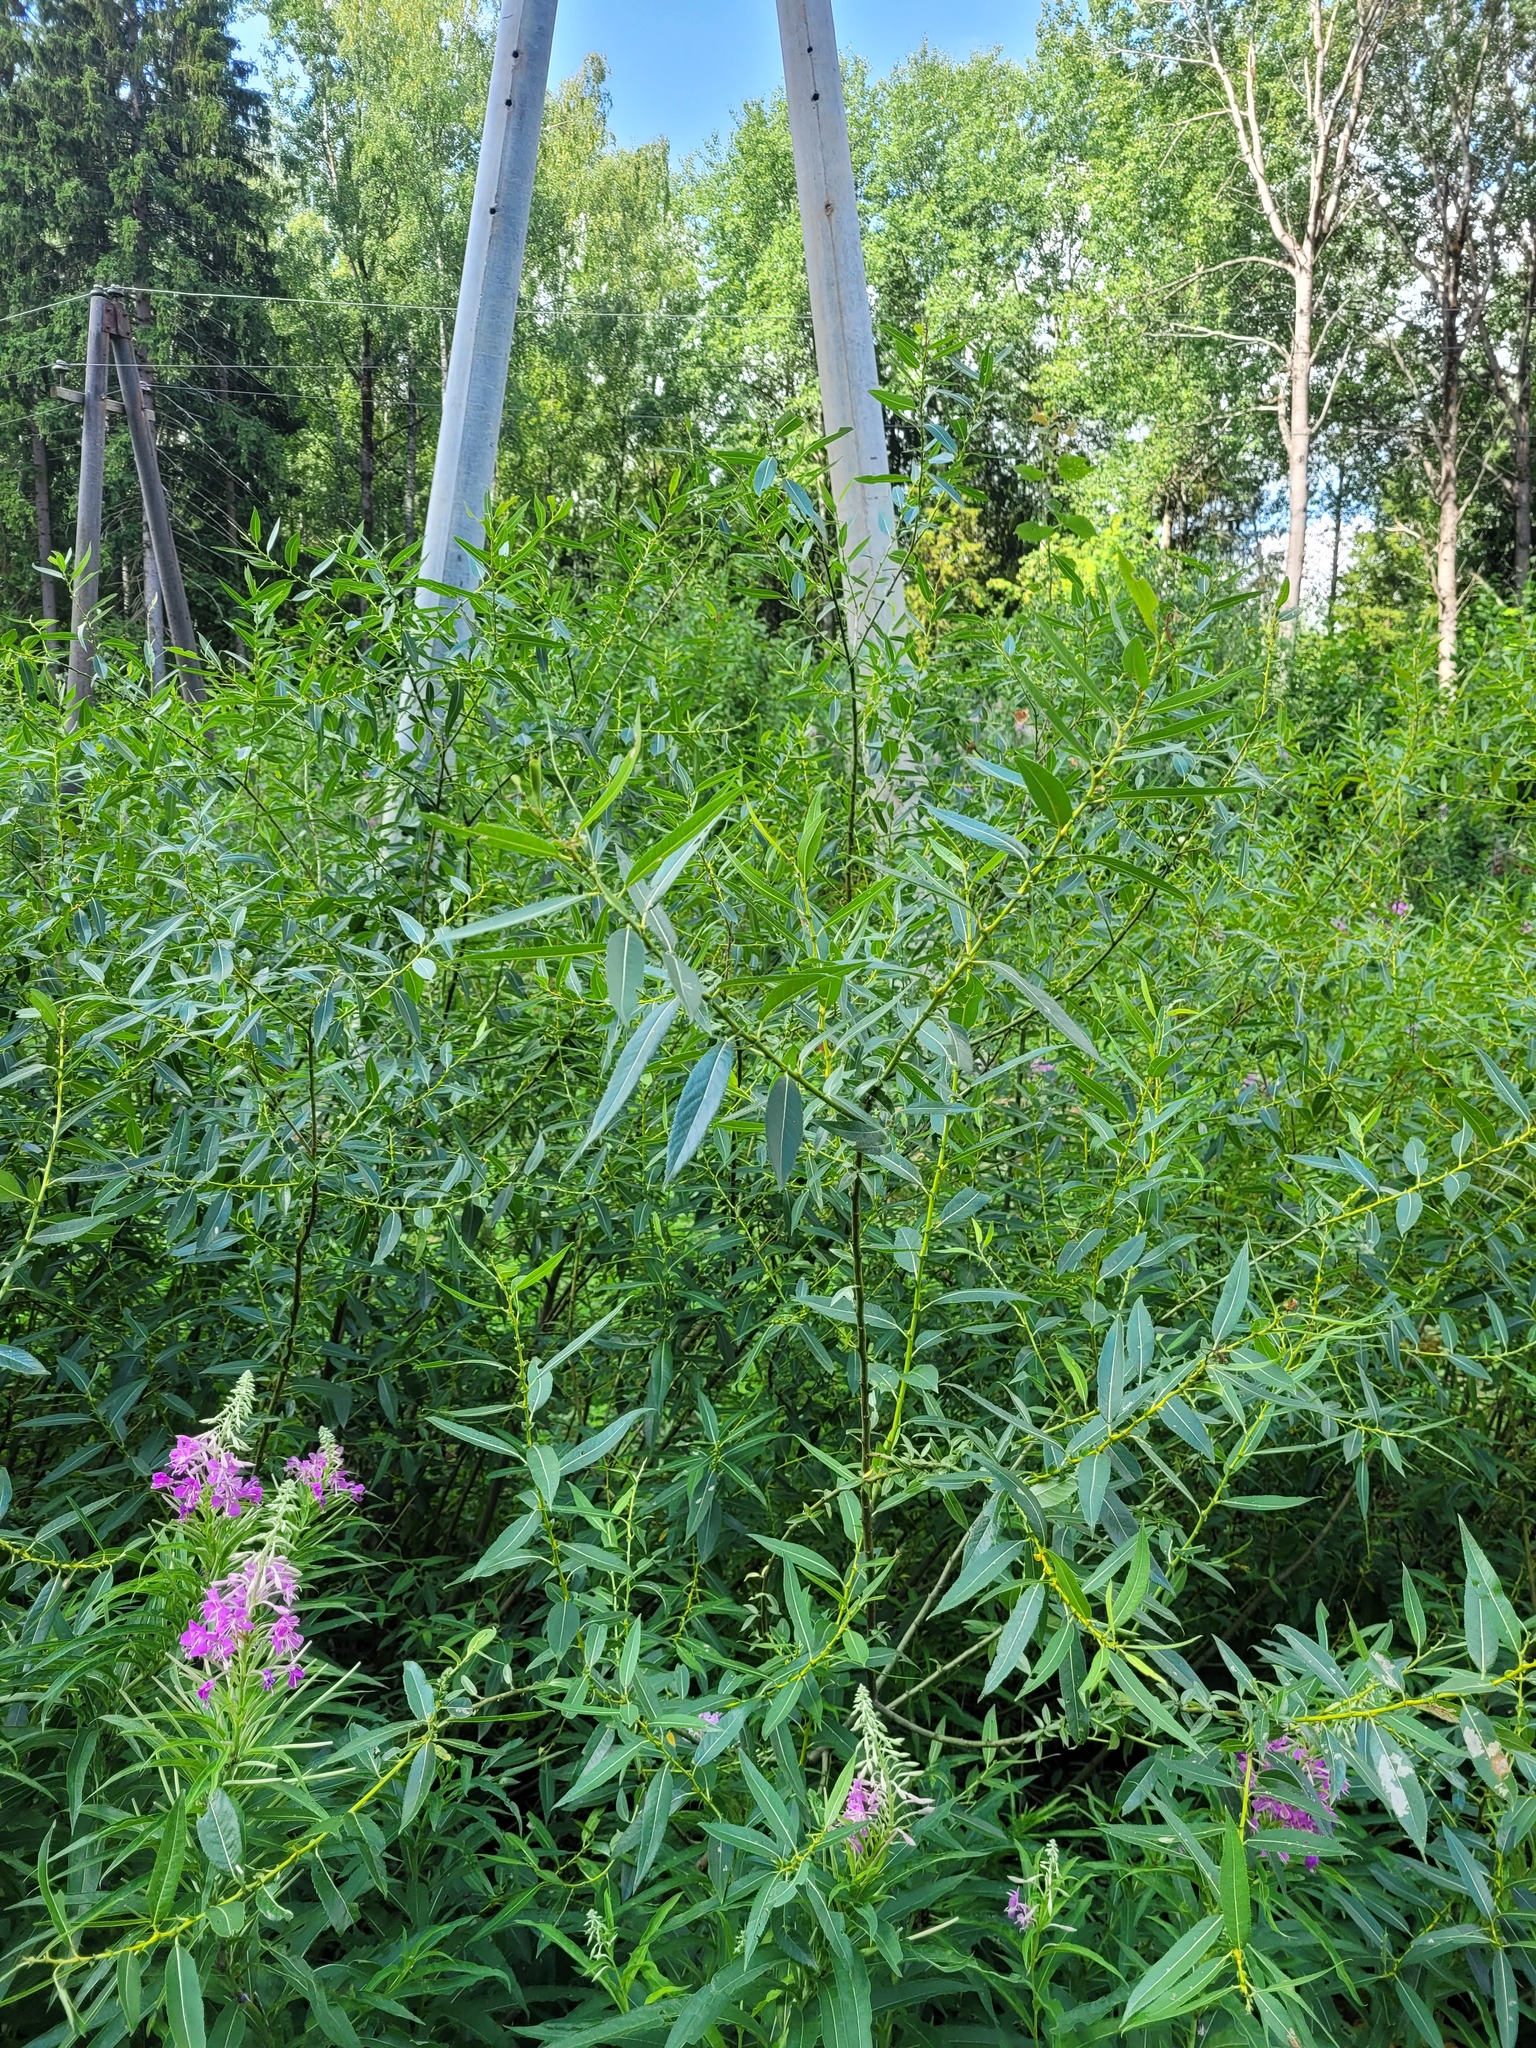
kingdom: Plantae
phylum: Tracheophyta
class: Magnoliopsida
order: Malpighiales
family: Salicaceae
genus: Salix
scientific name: Salix triandra
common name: Almond willow
